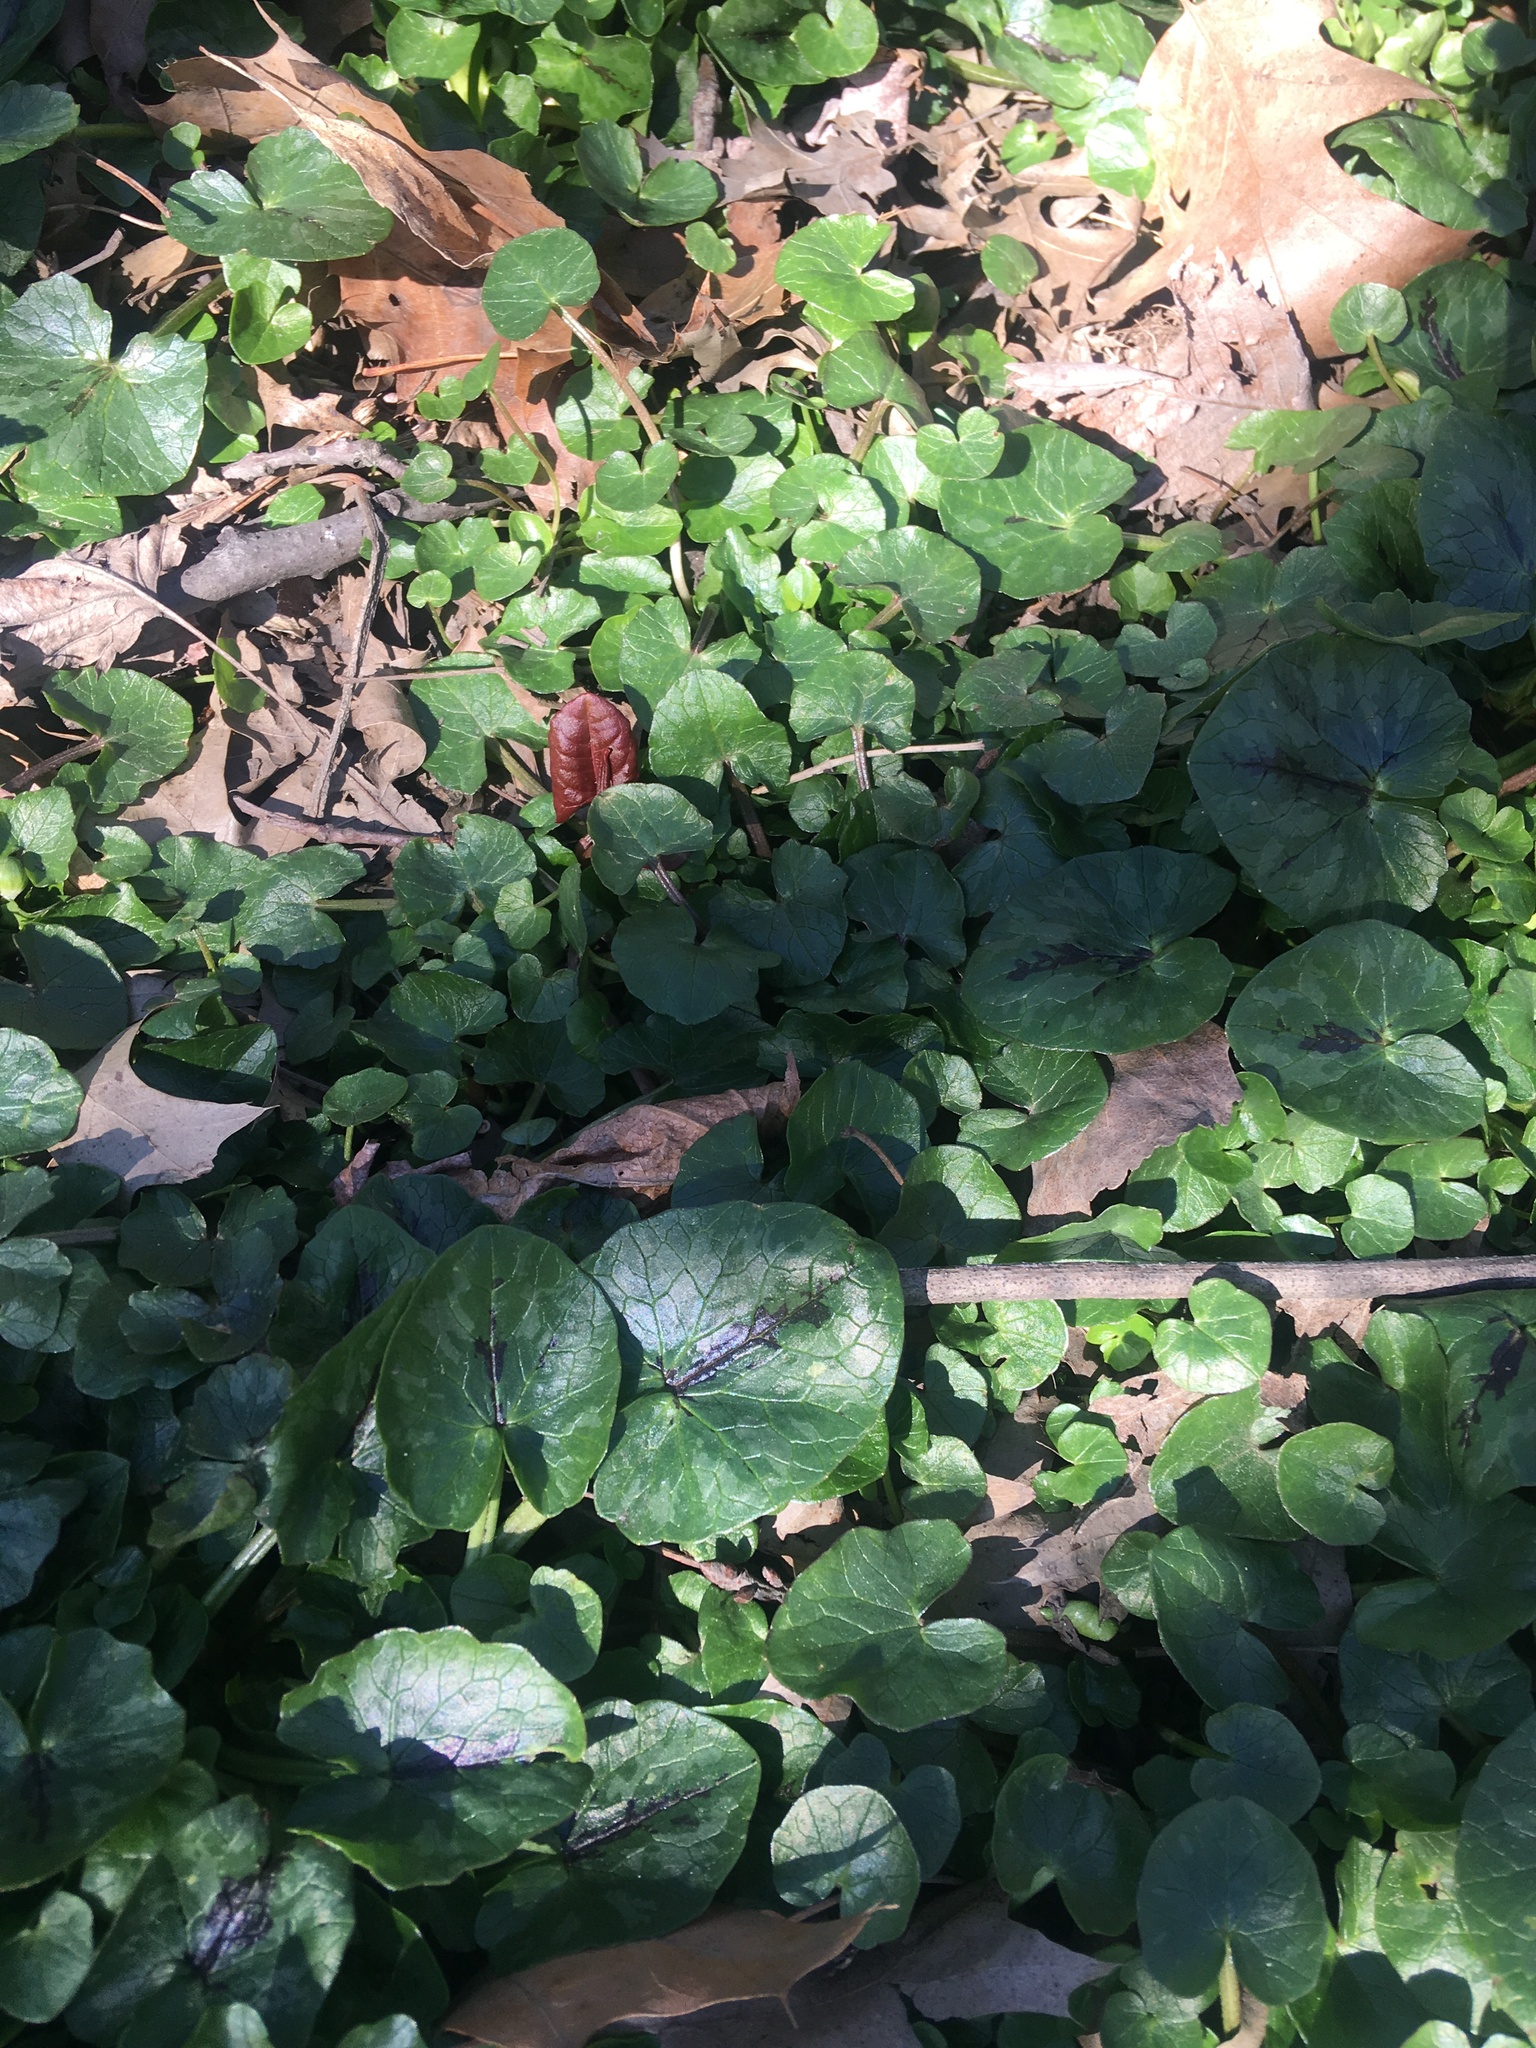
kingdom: Plantae
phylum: Tracheophyta
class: Magnoliopsida
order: Ranunculales
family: Ranunculaceae
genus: Ficaria
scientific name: Ficaria verna
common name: Lesser celandine
